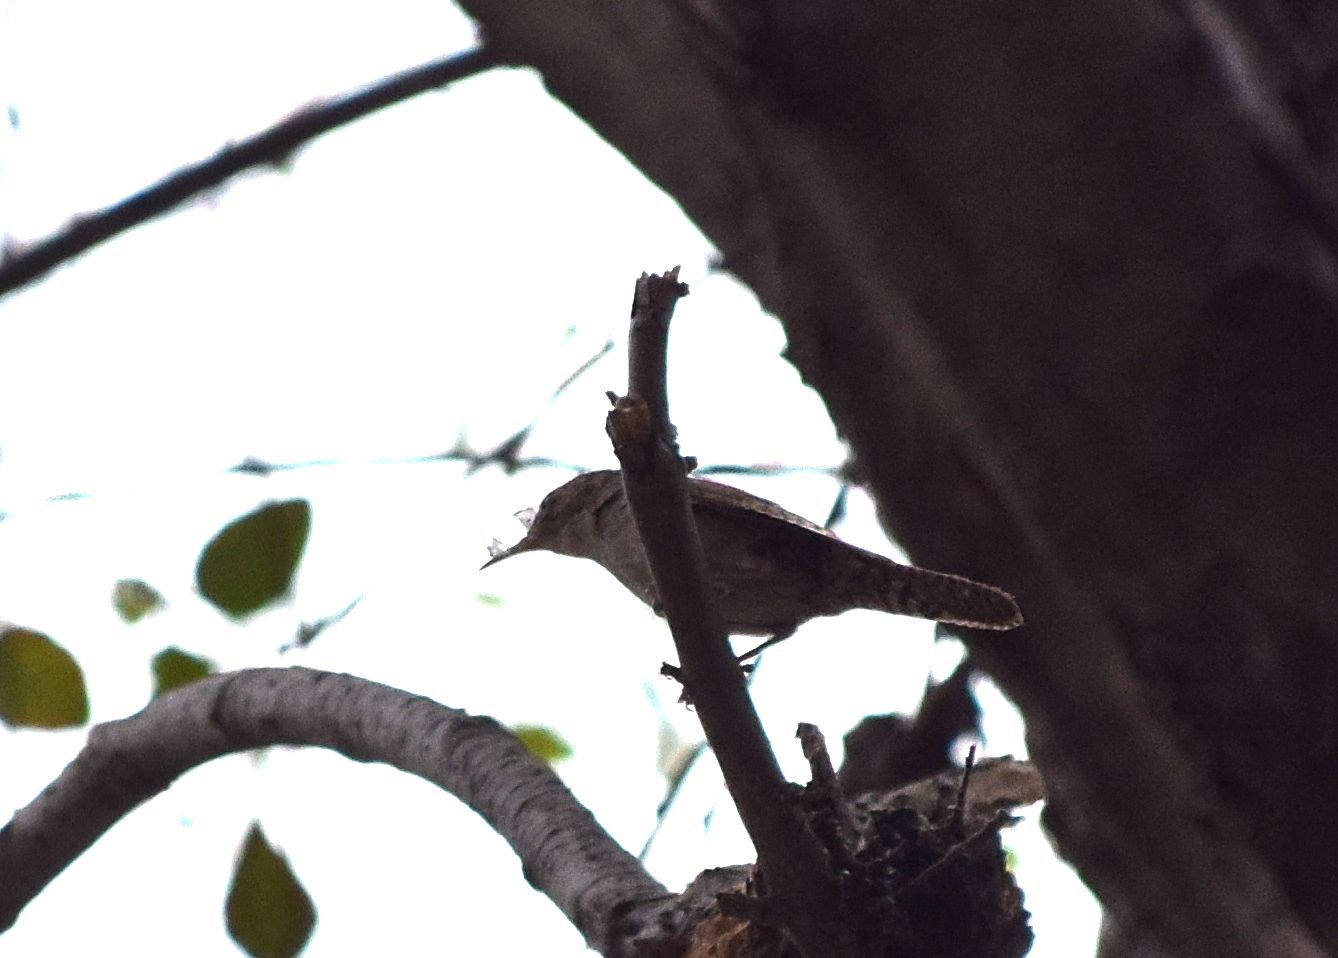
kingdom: Animalia
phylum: Chordata
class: Aves
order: Passeriformes
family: Troglodytidae
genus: Troglodytes
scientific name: Troglodytes aedon
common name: House wren
